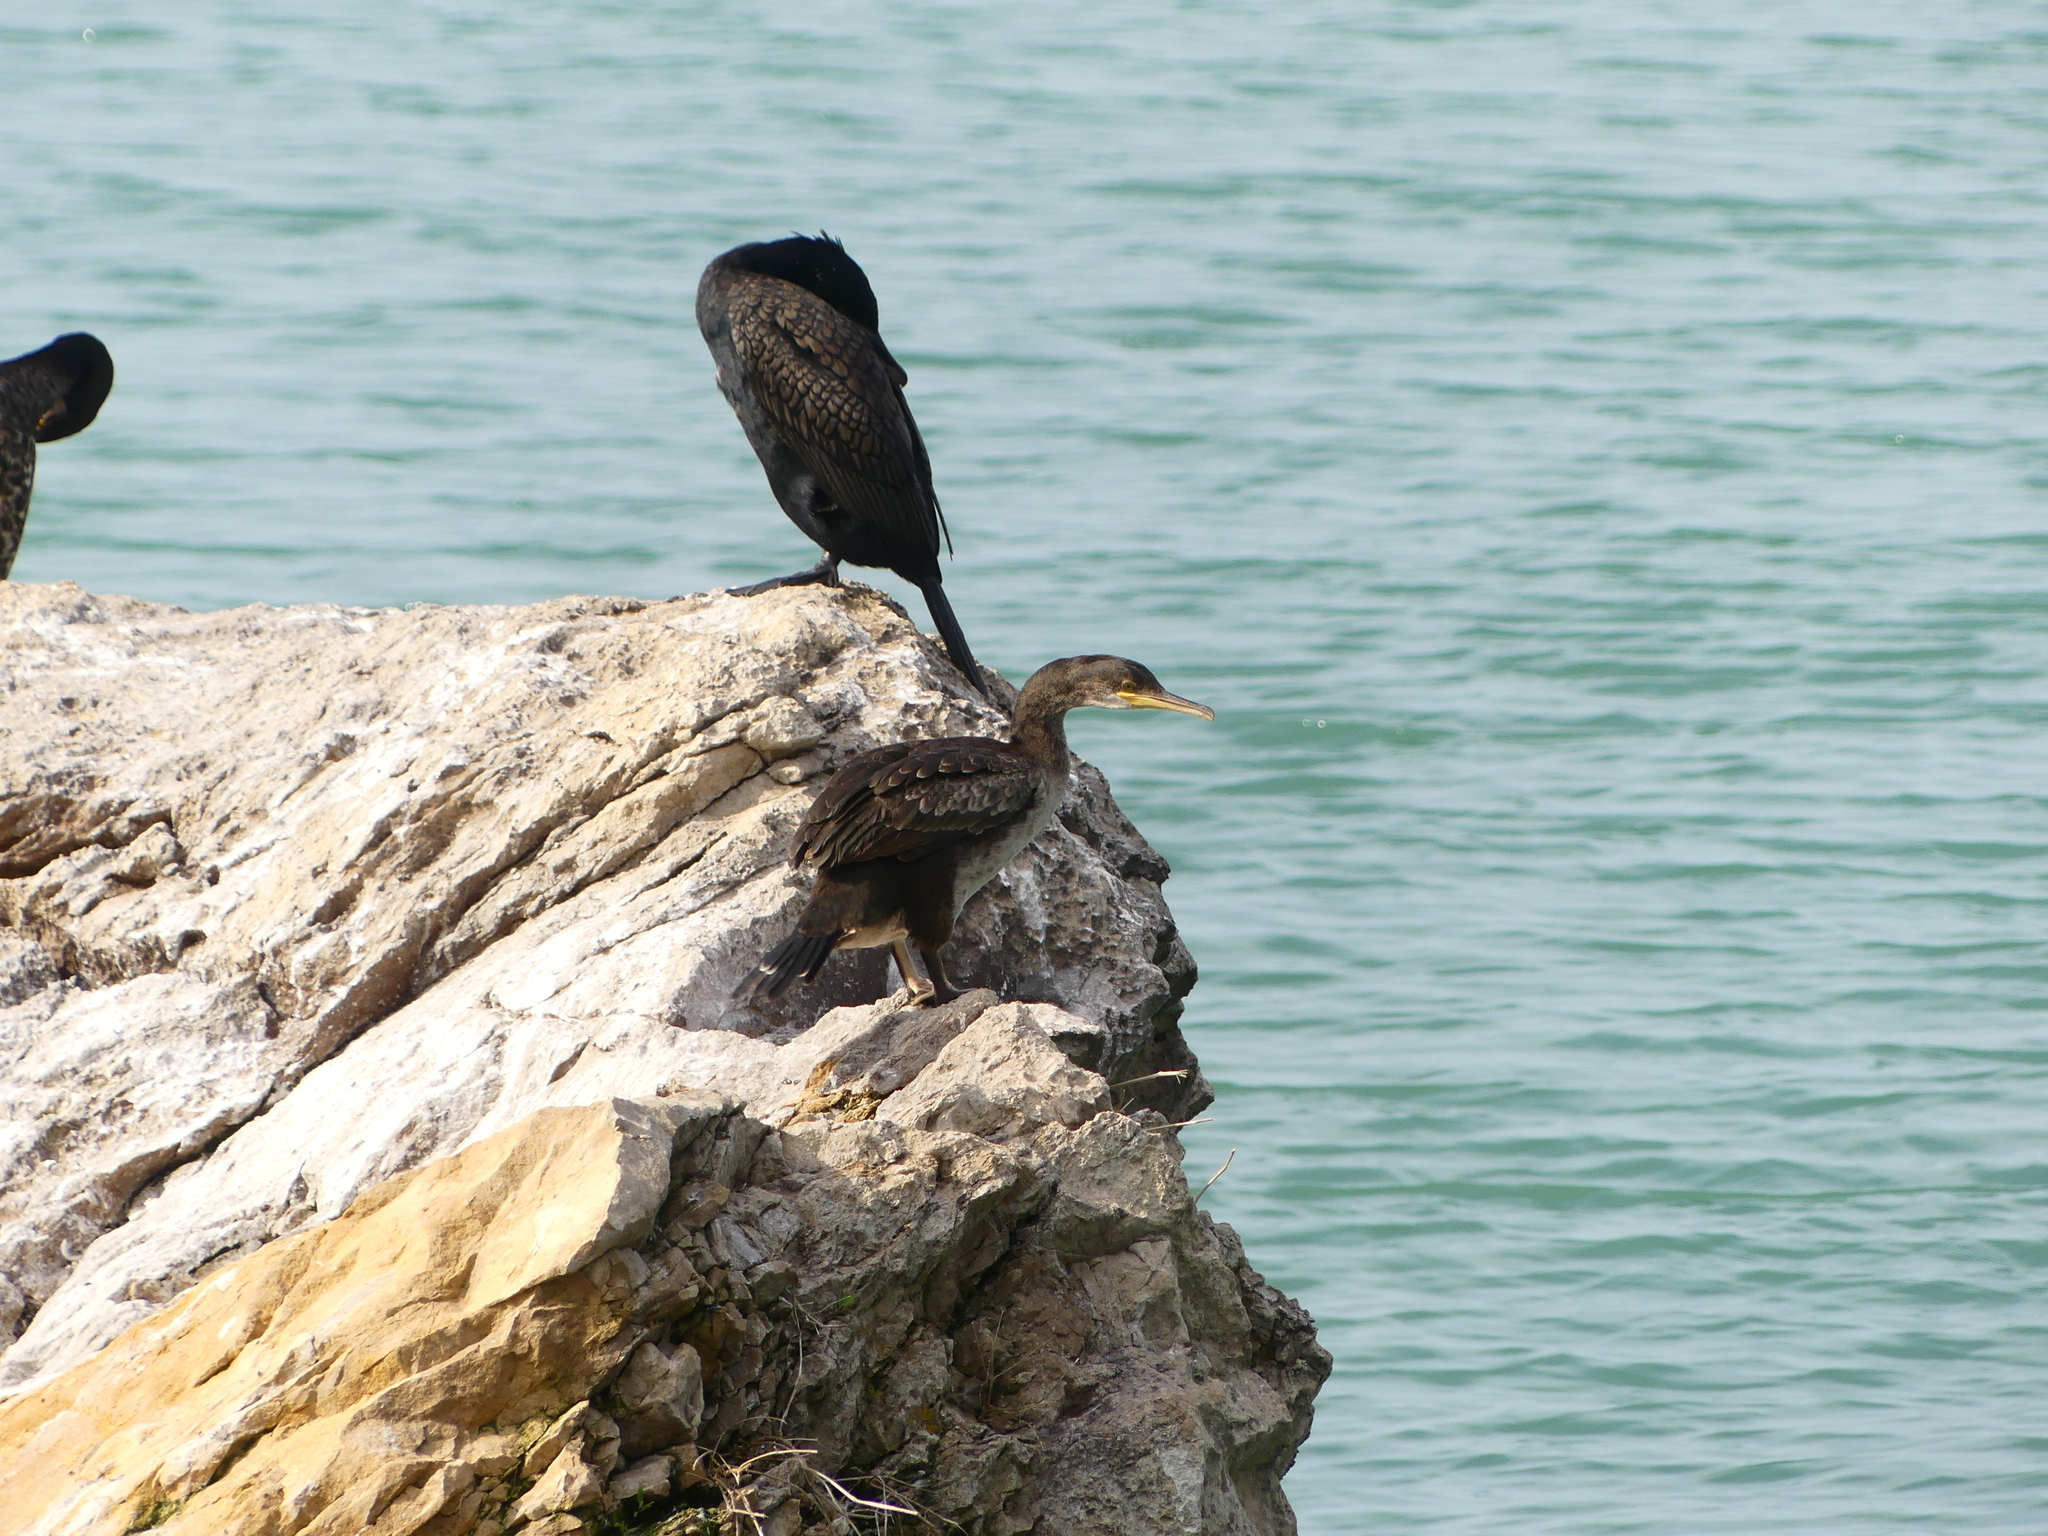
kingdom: Animalia
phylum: Chordata
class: Aves
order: Suliformes
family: Phalacrocoracidae
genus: Phalacrocorax
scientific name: Phalacrocorax aristotelis
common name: European shag
